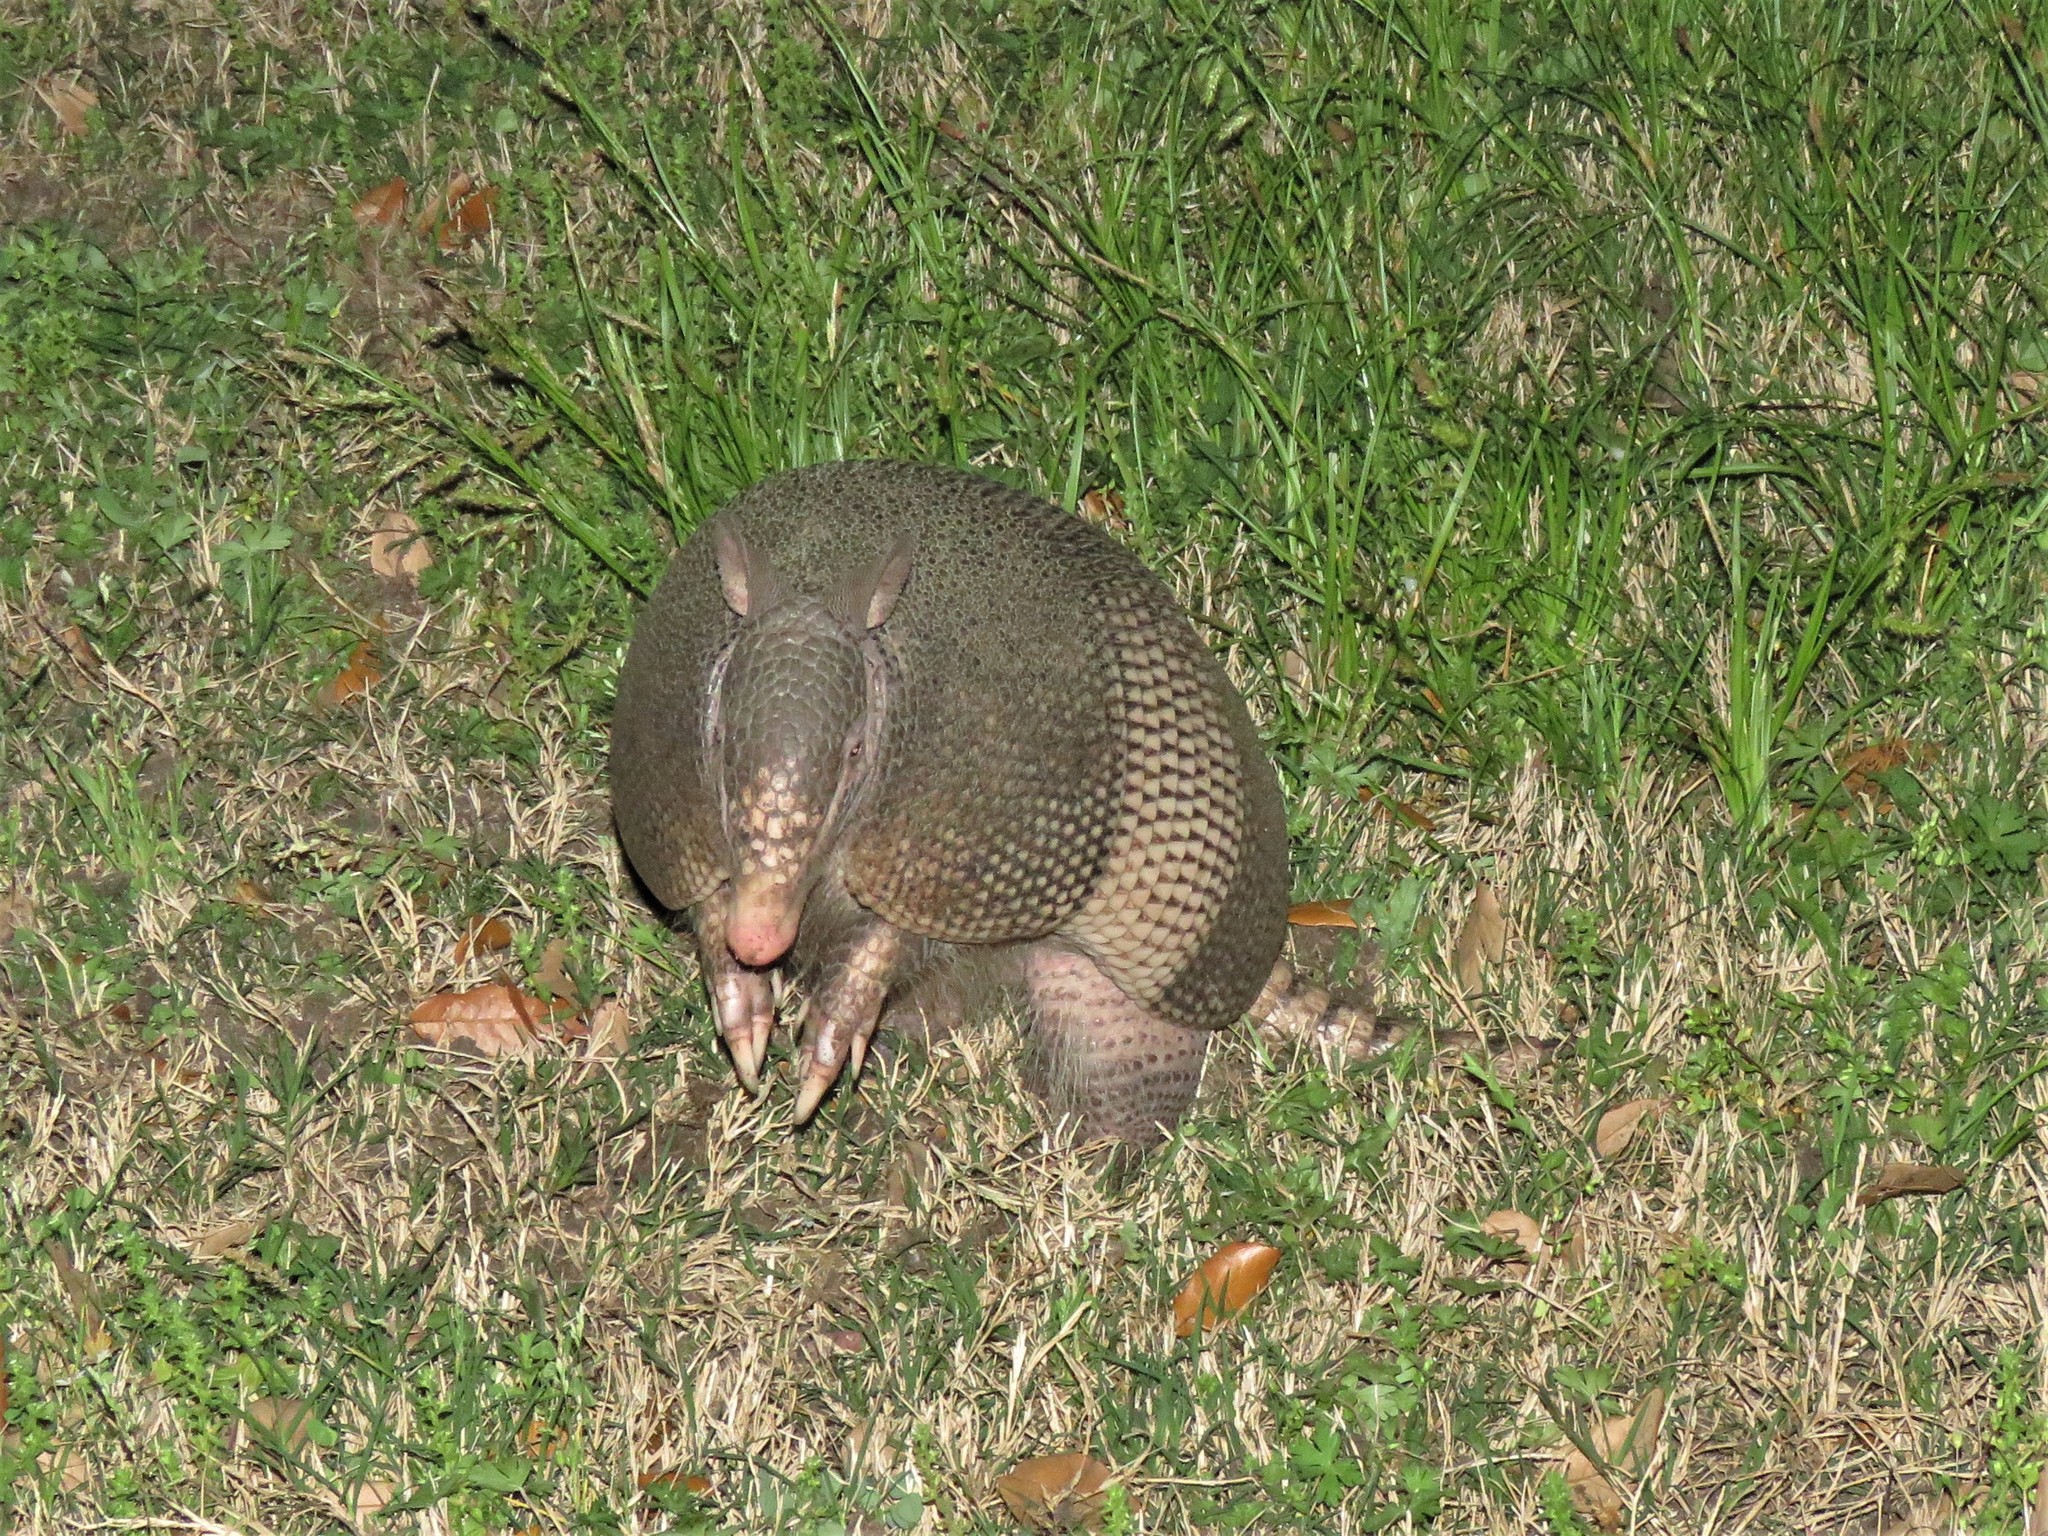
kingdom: Animalia
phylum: Chordata
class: Mammalia
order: Cingulata
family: Dasypodidae
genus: Dasypus
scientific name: Dasypus novemcinctus
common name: Nine-banded armadillo
